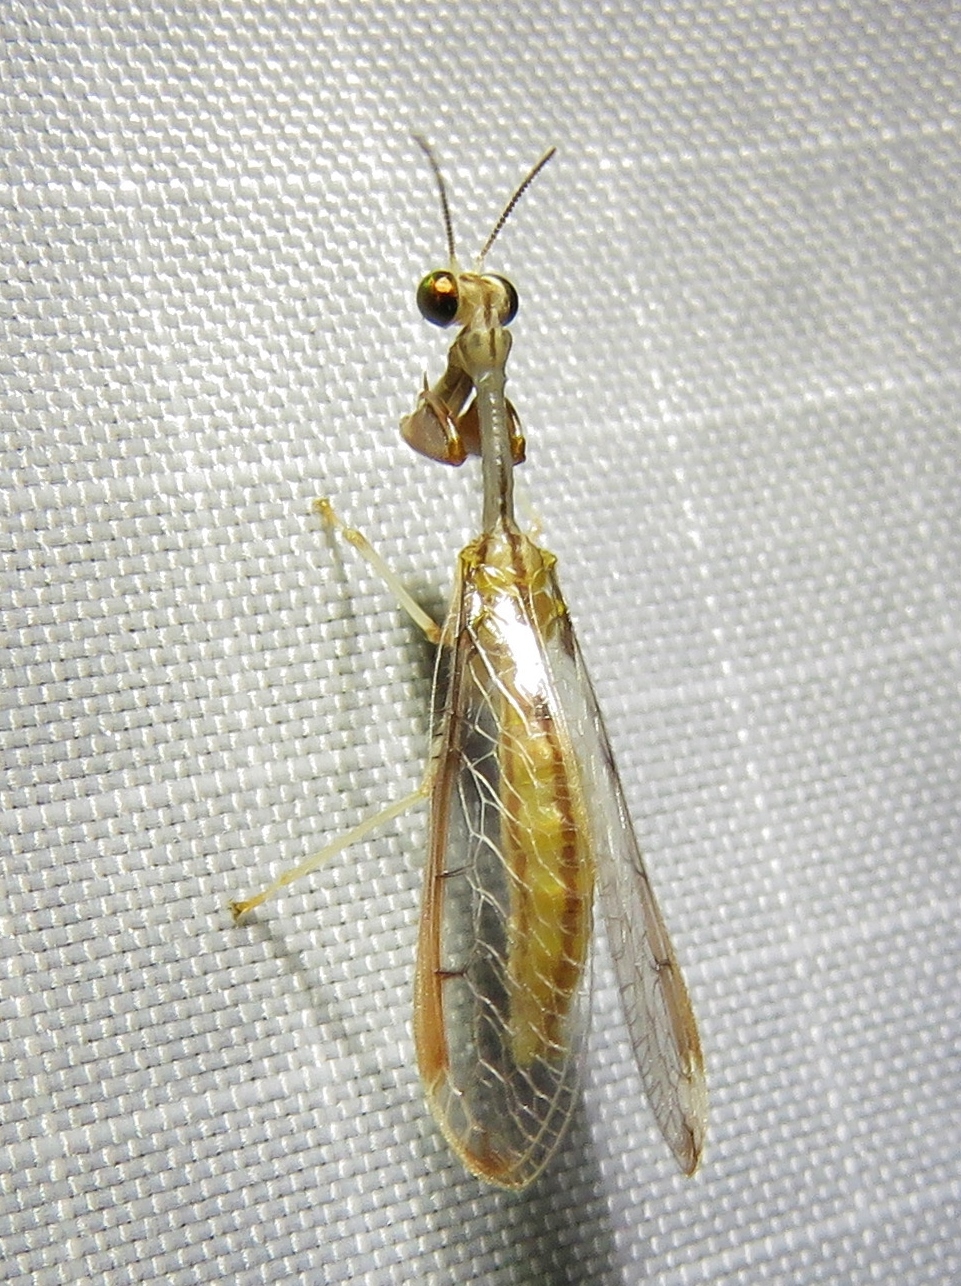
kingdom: Animalia
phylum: Arthropoda
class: Insecta
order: Neuroptera
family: Mantispidae
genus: Dicromantispa
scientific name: Dicromantispa interrupta
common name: Four-spotted mantidfly
